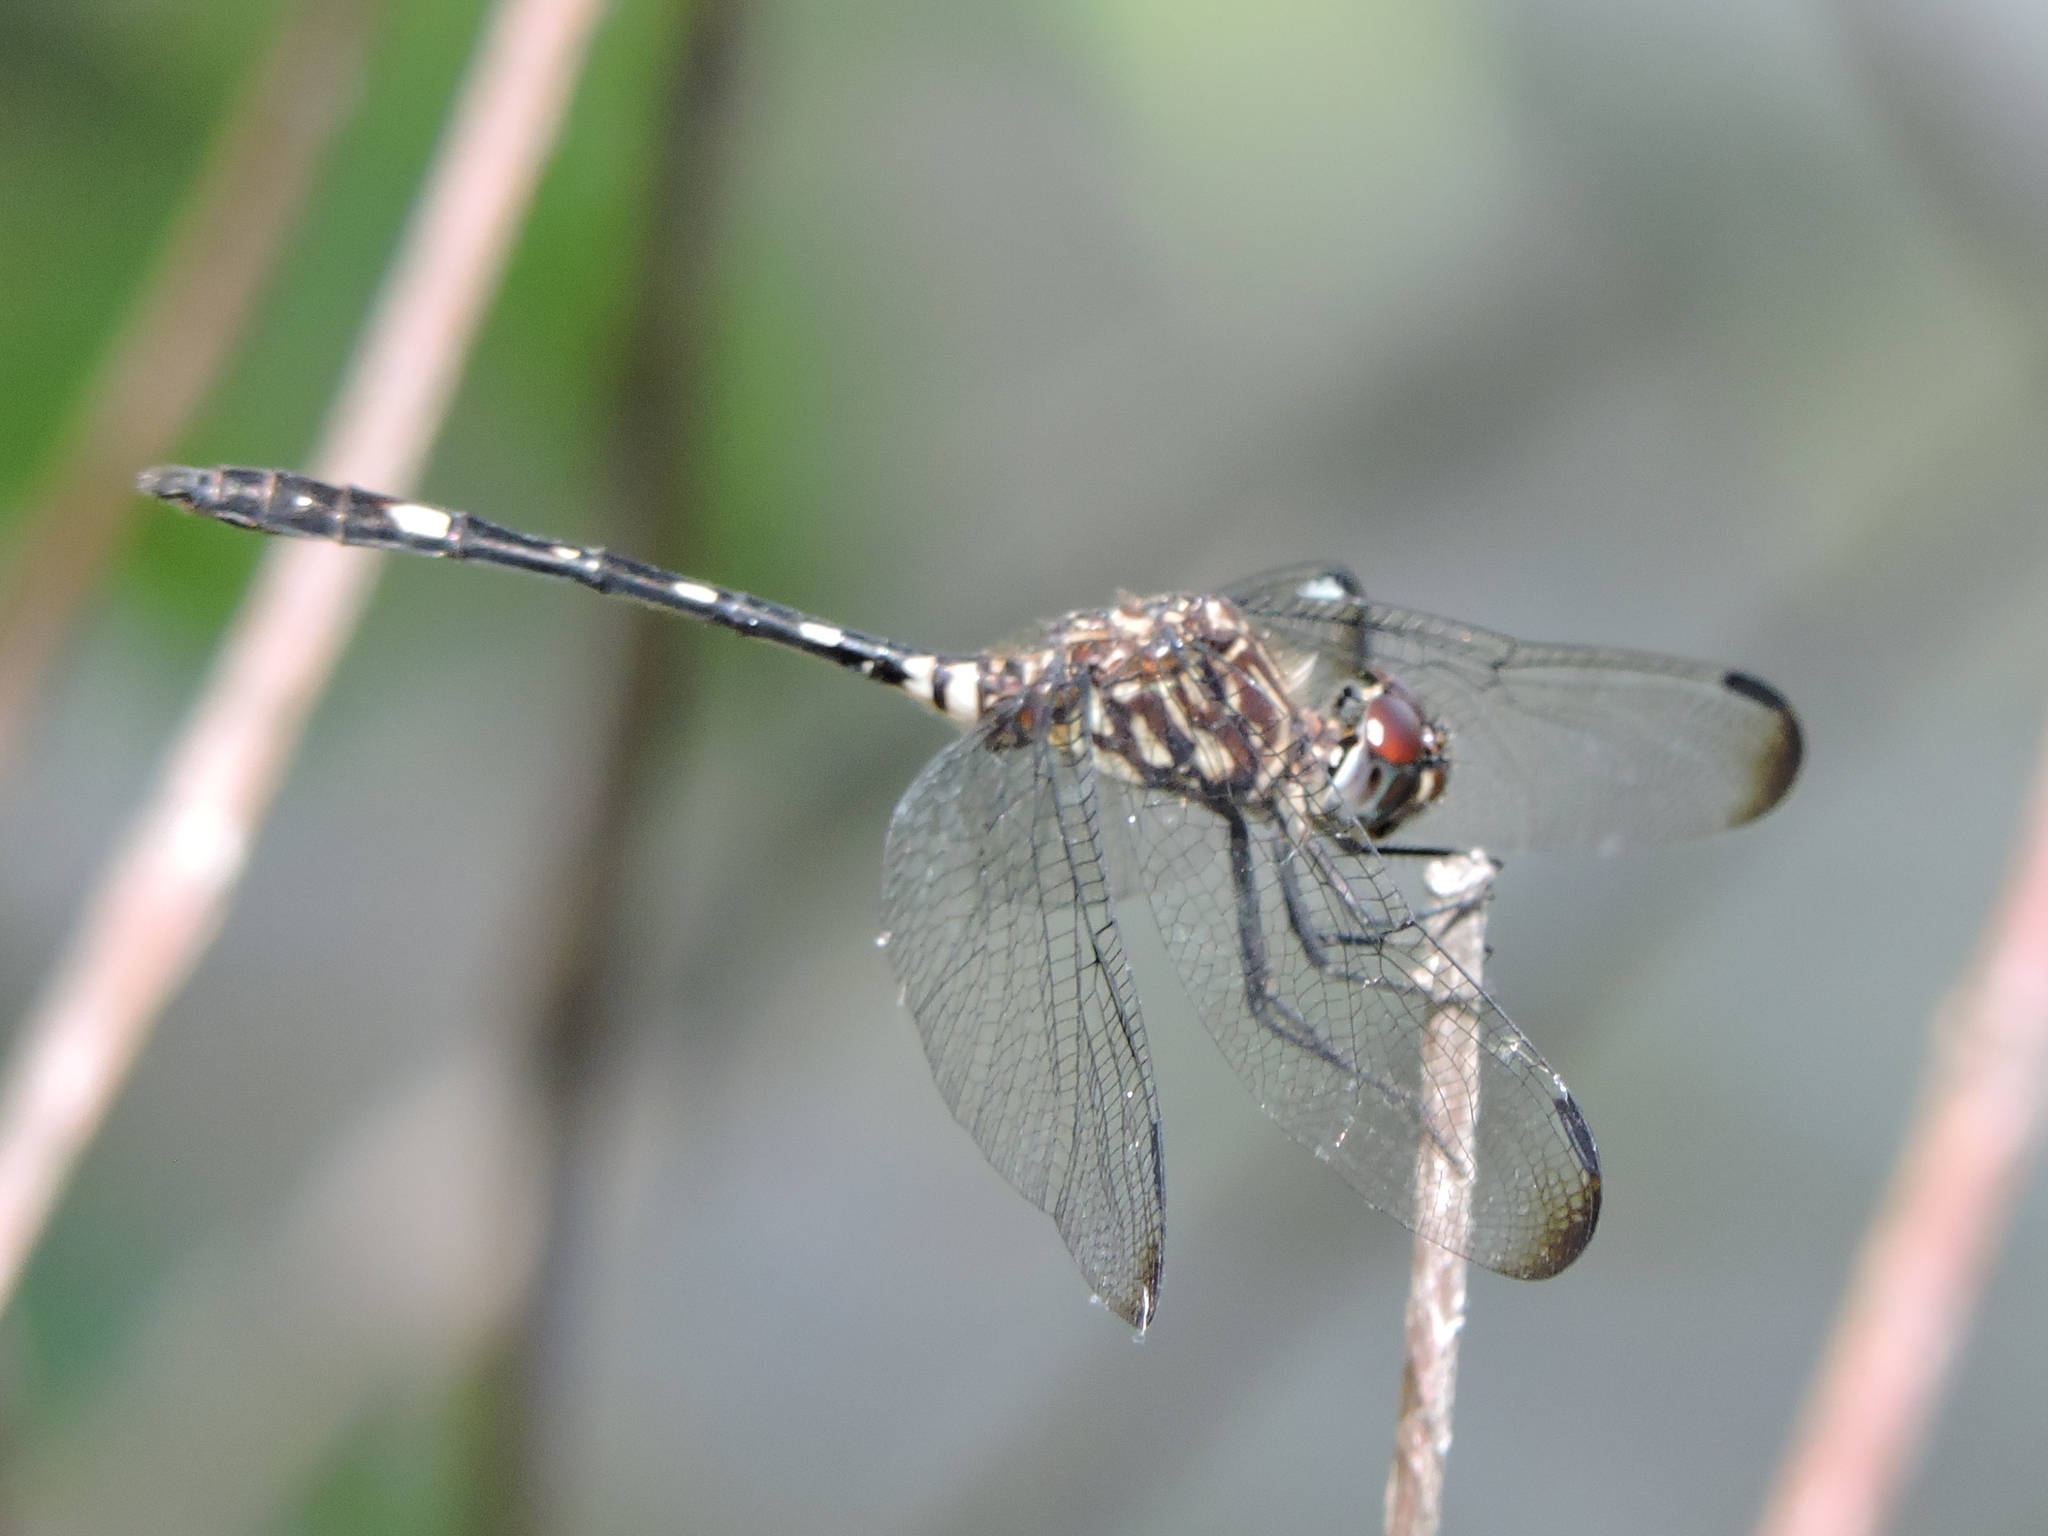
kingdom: Animalia
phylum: Arthropoda
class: Insecta
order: Odonata
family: Libellulidae
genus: Dythemis
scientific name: Dythemis velox
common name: Swift setwing
